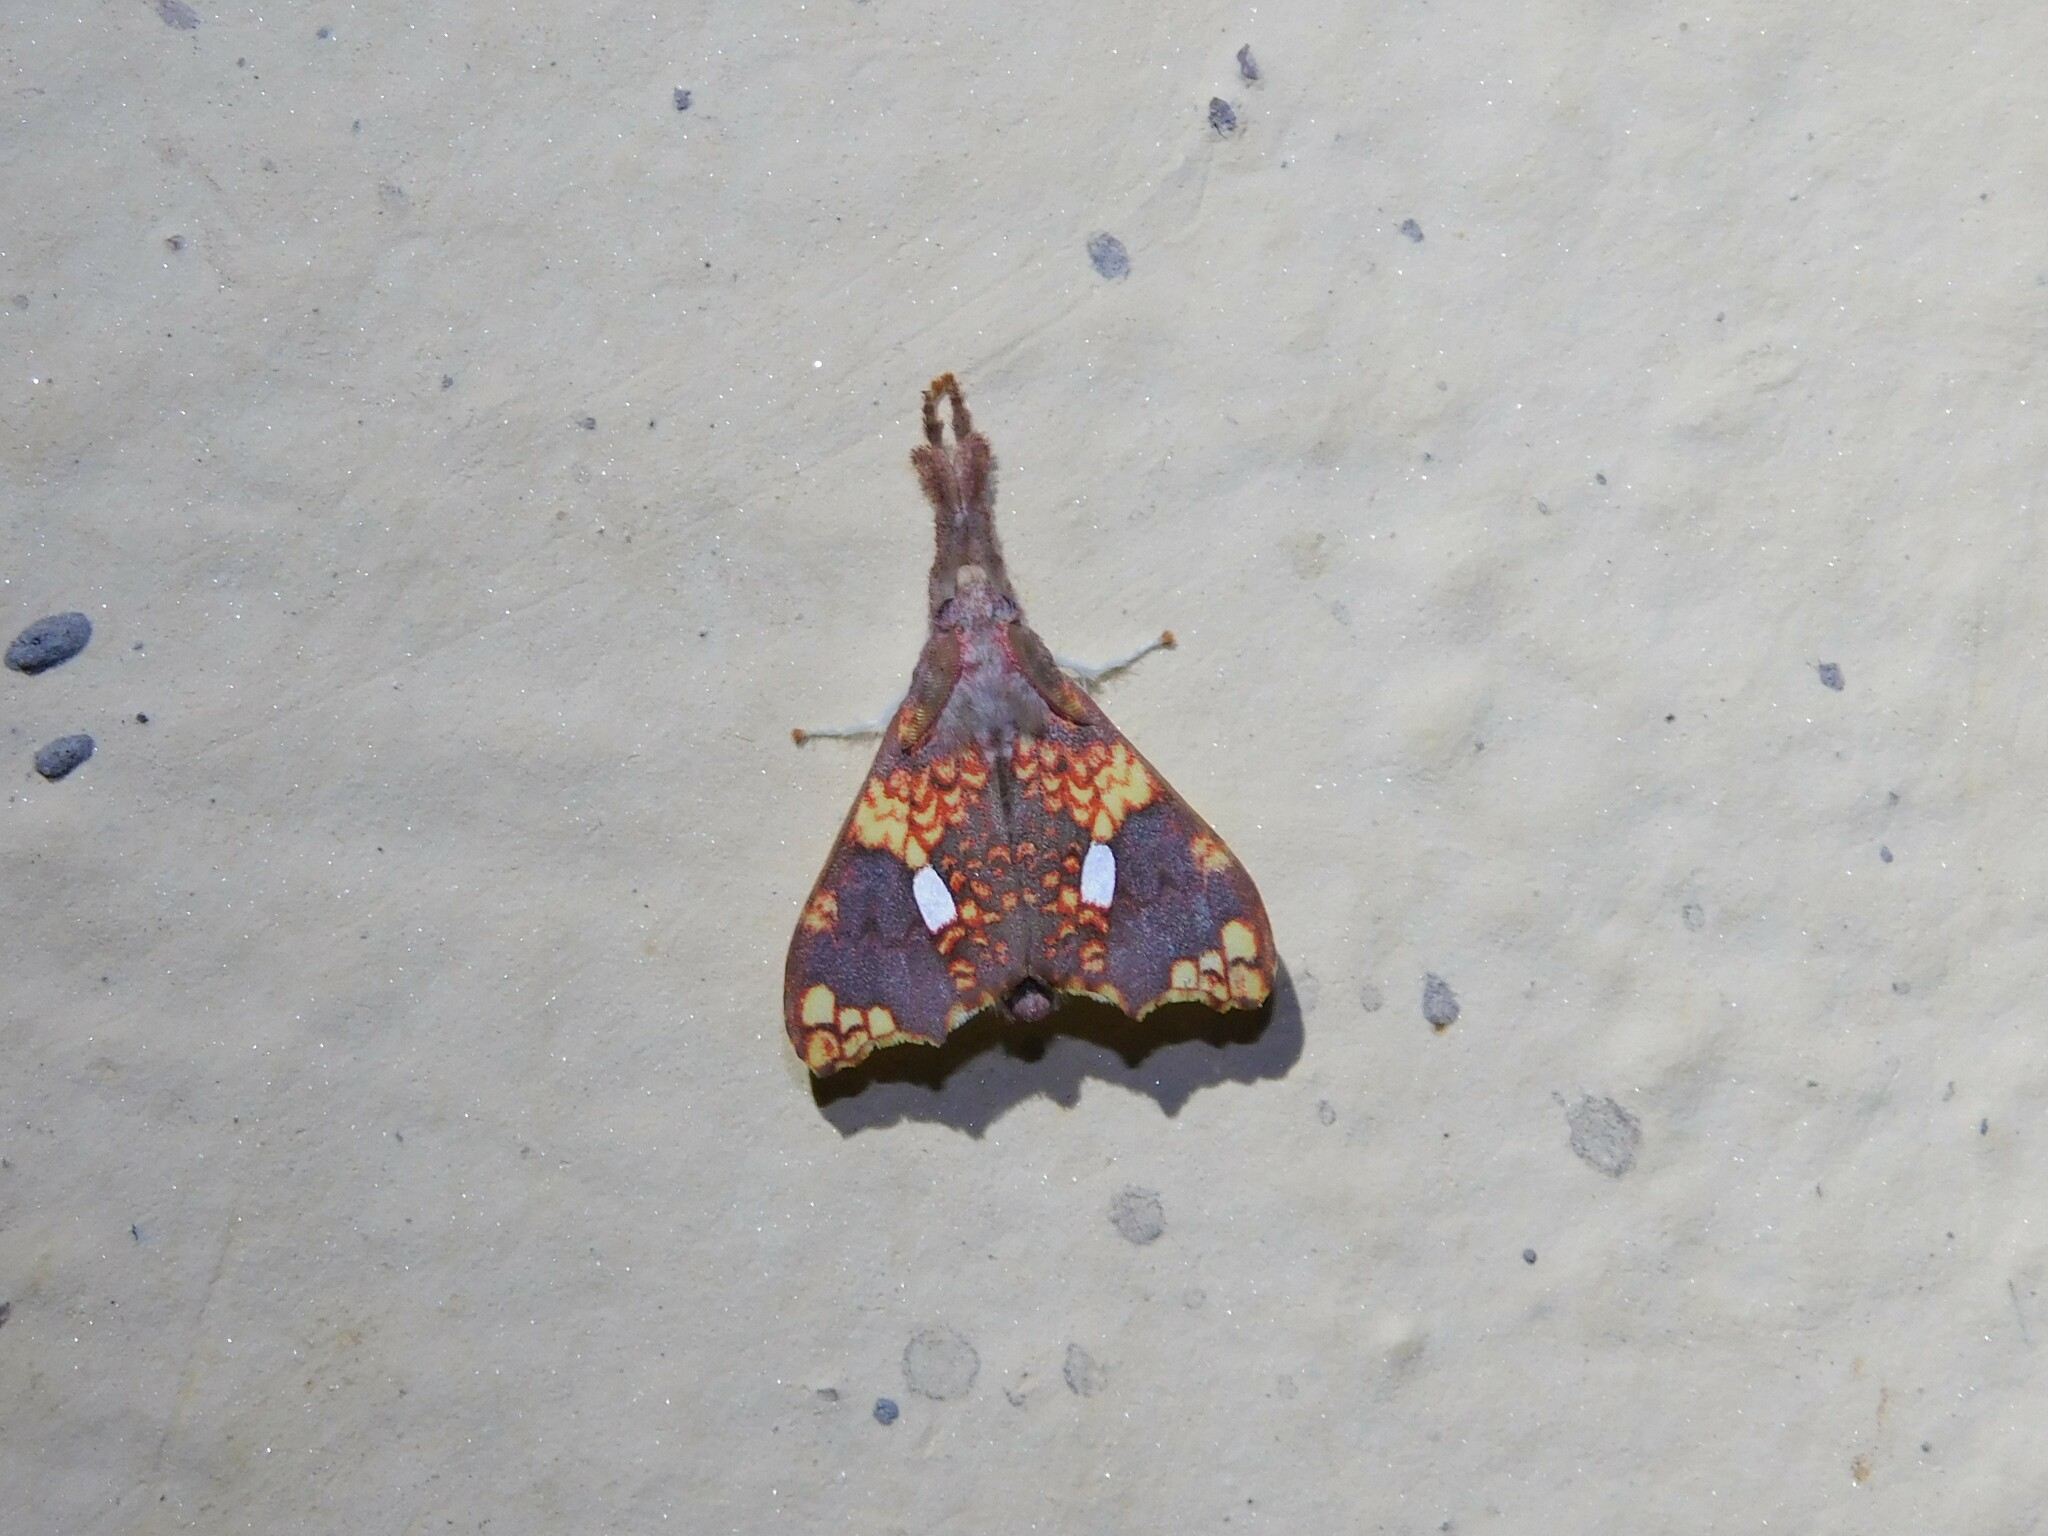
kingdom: Animalia
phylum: Arthropoda
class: Insecta
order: Lepidoptera
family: Erebidae
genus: Lomadonta
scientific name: Lomadonta erythrina
